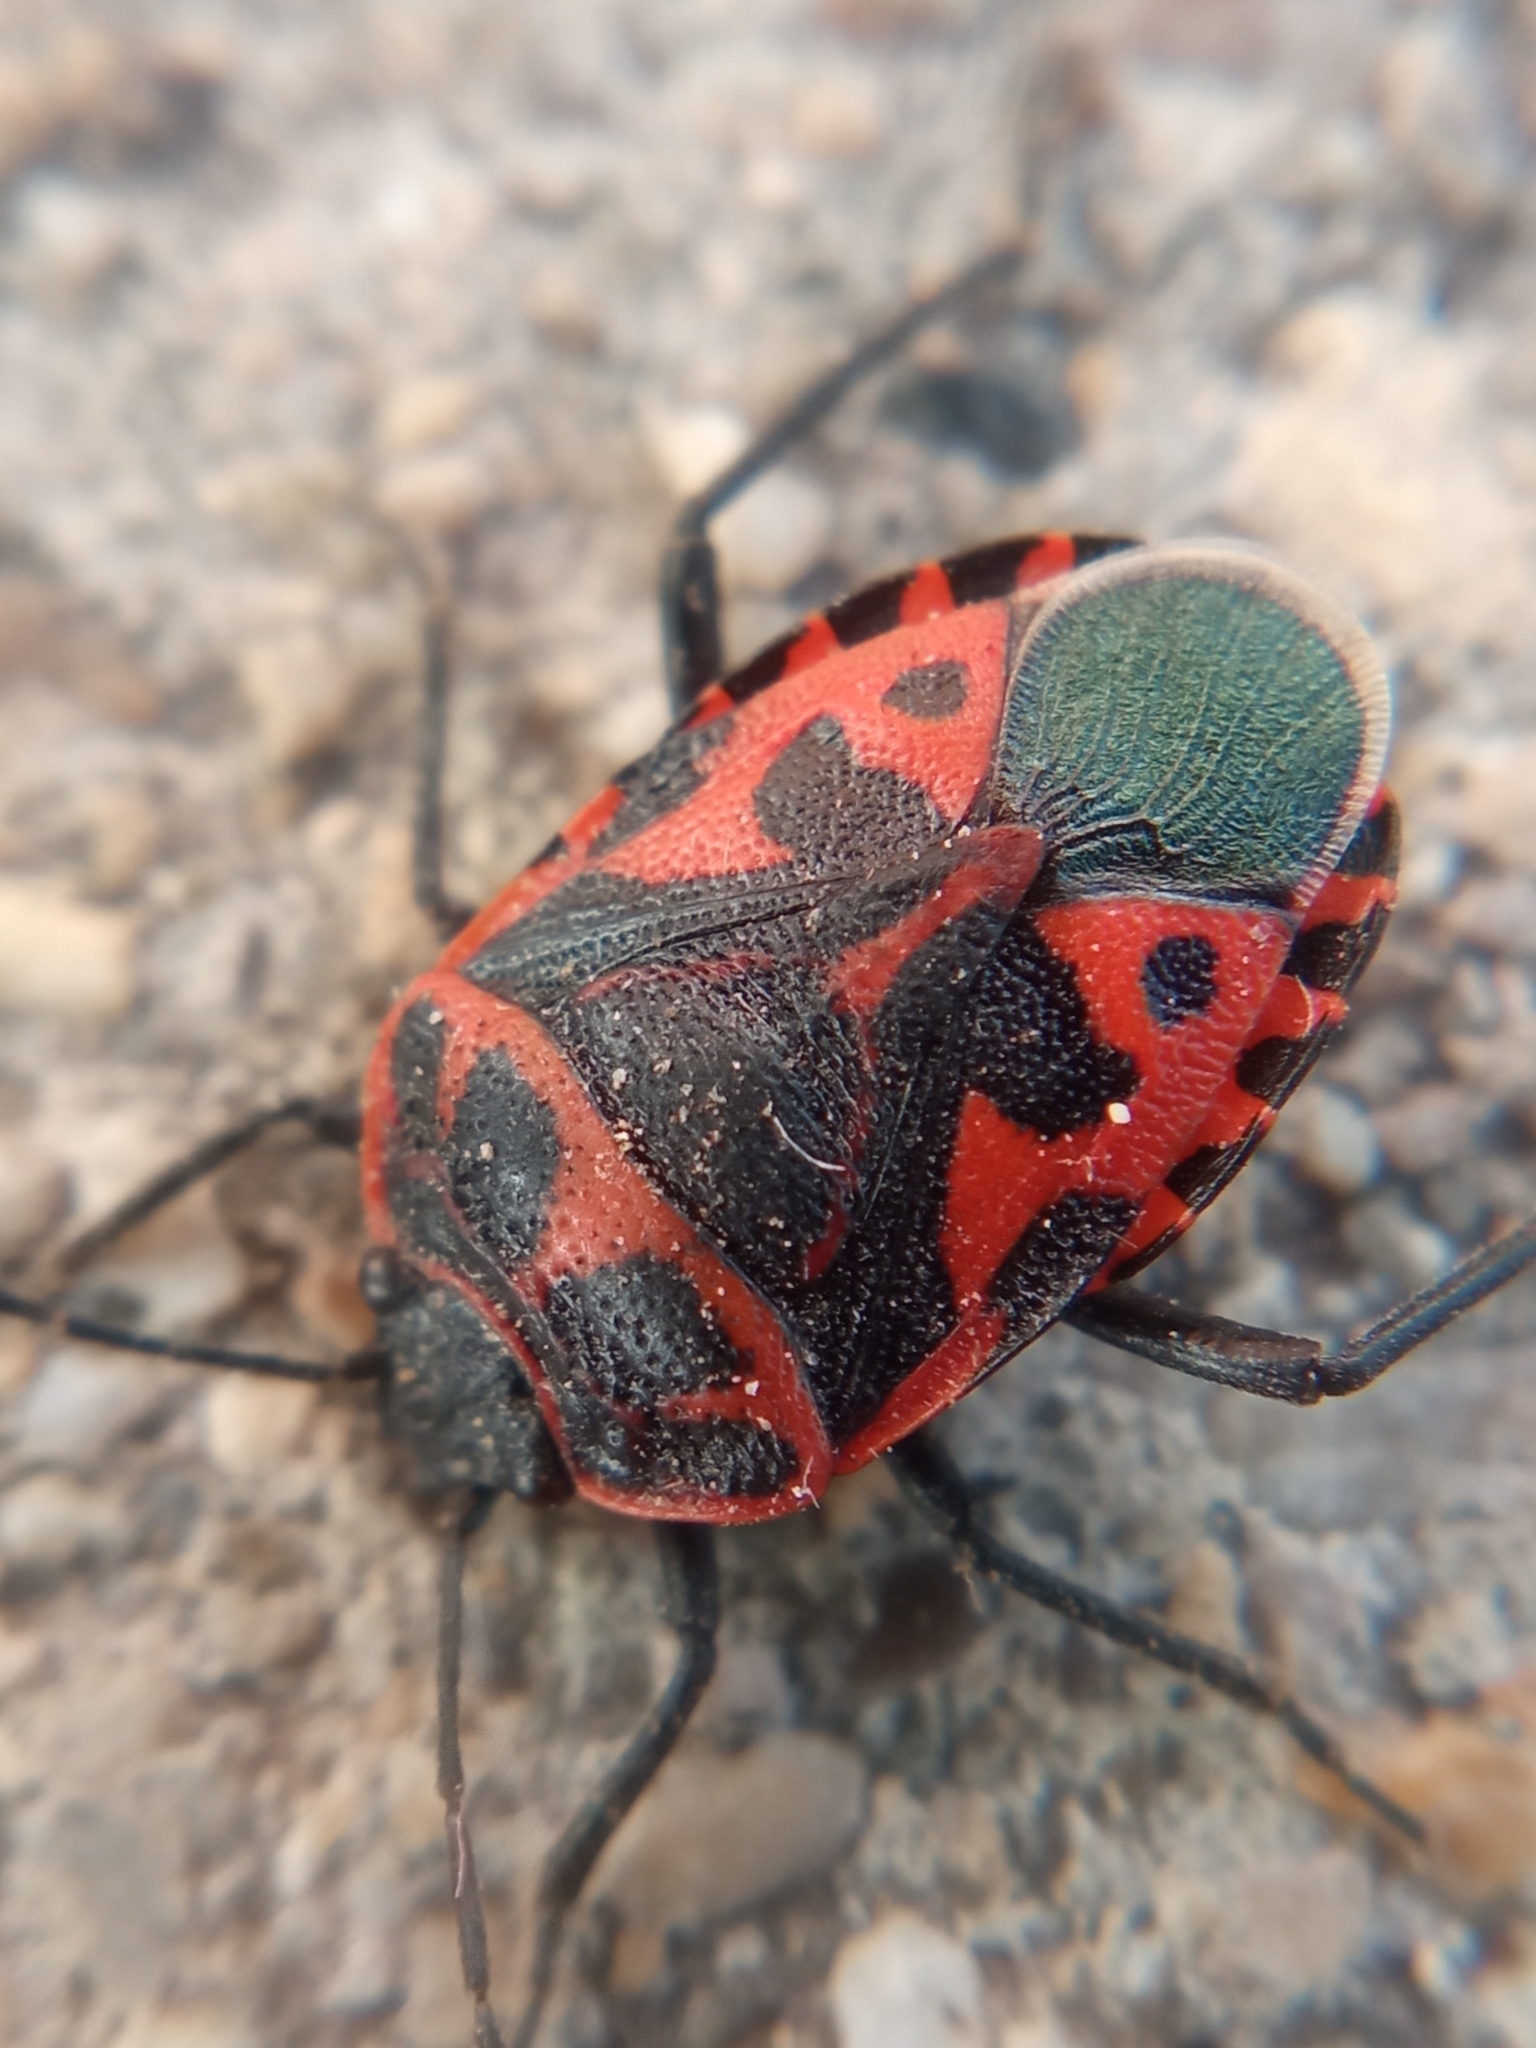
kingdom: Animalia
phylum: Arthropoda
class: Insecta
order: Hemiptera
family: Pentatomidae
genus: Eurydema
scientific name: Eurydema ventralis
